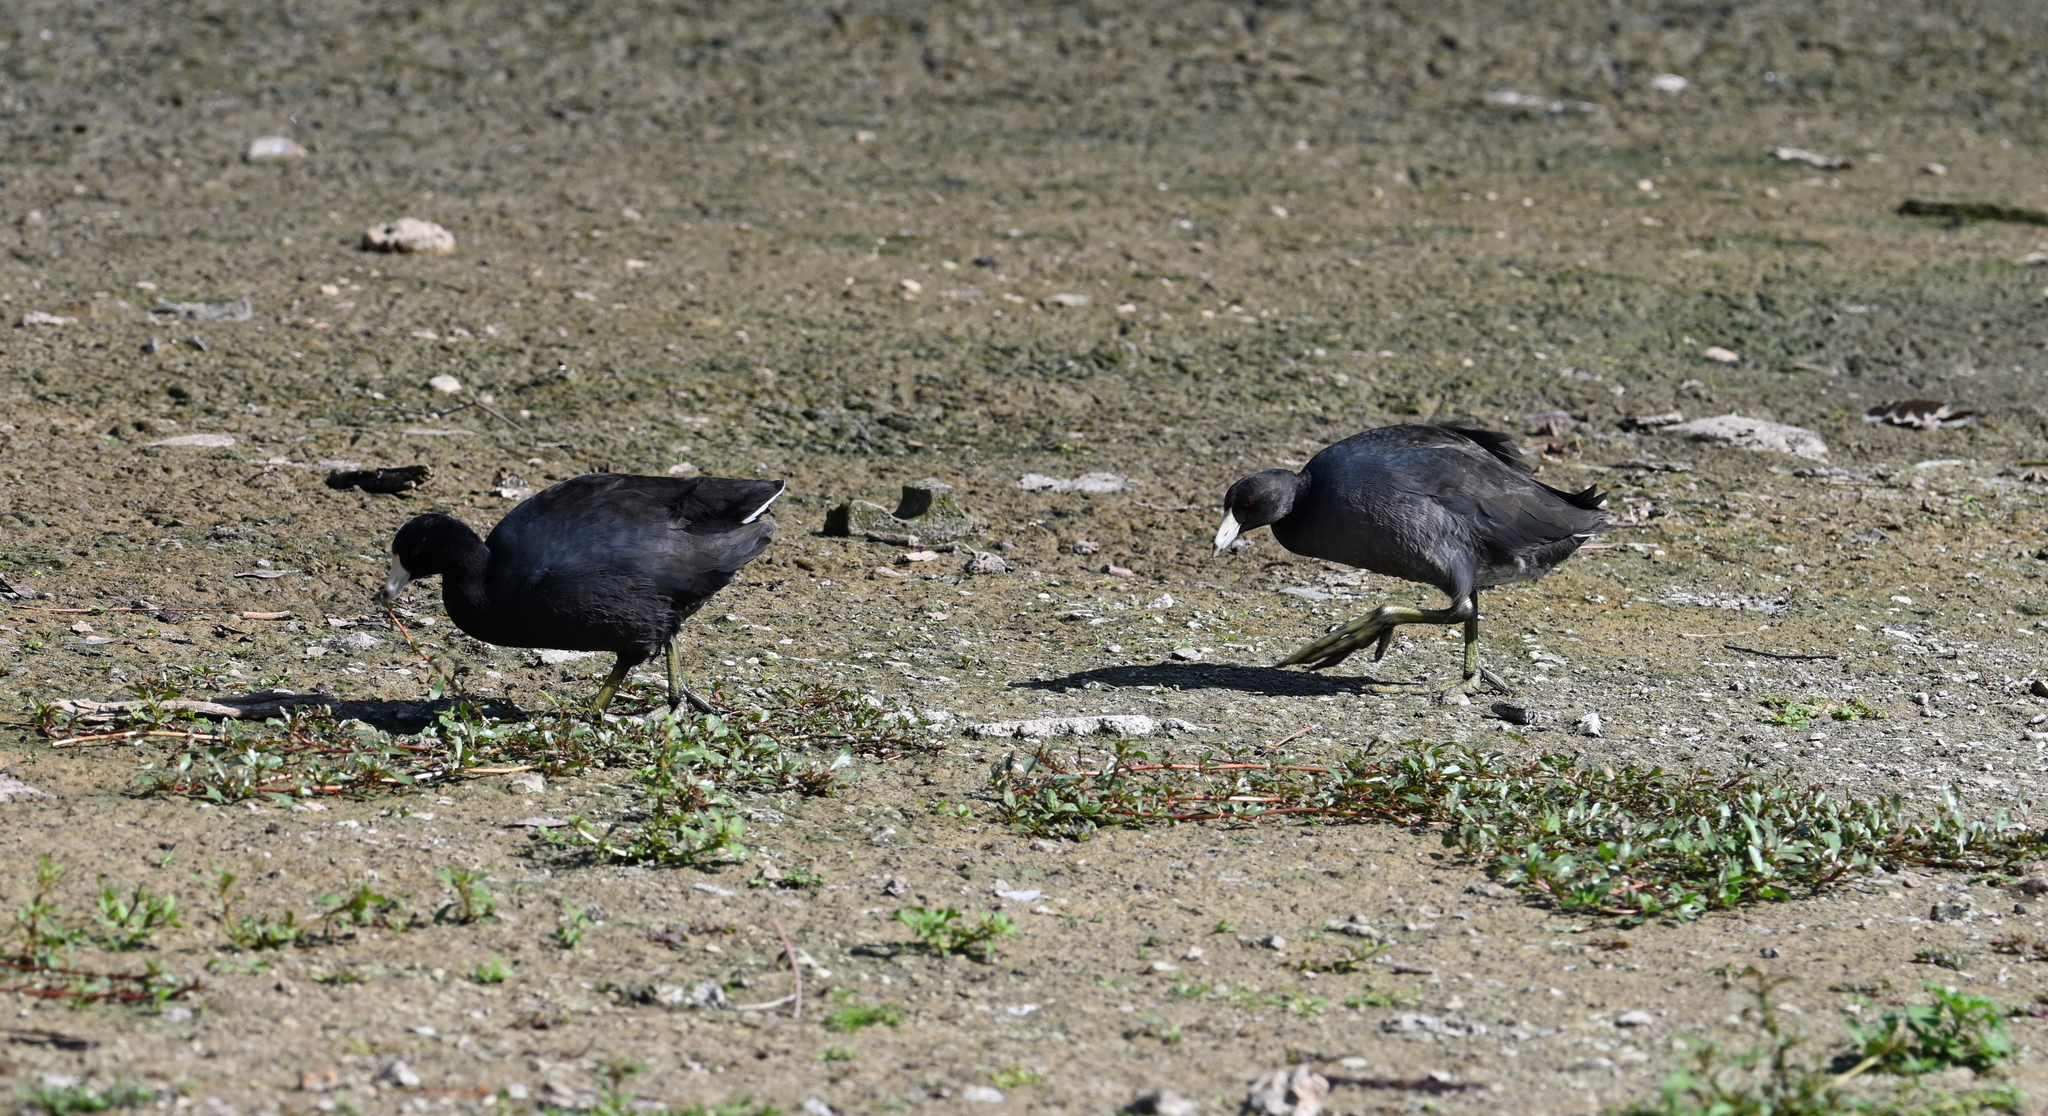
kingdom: Animalia
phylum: Chordata
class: Aves
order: Gruiformes
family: Rallidae
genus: Fulica
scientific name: Fulica americana
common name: American coot
